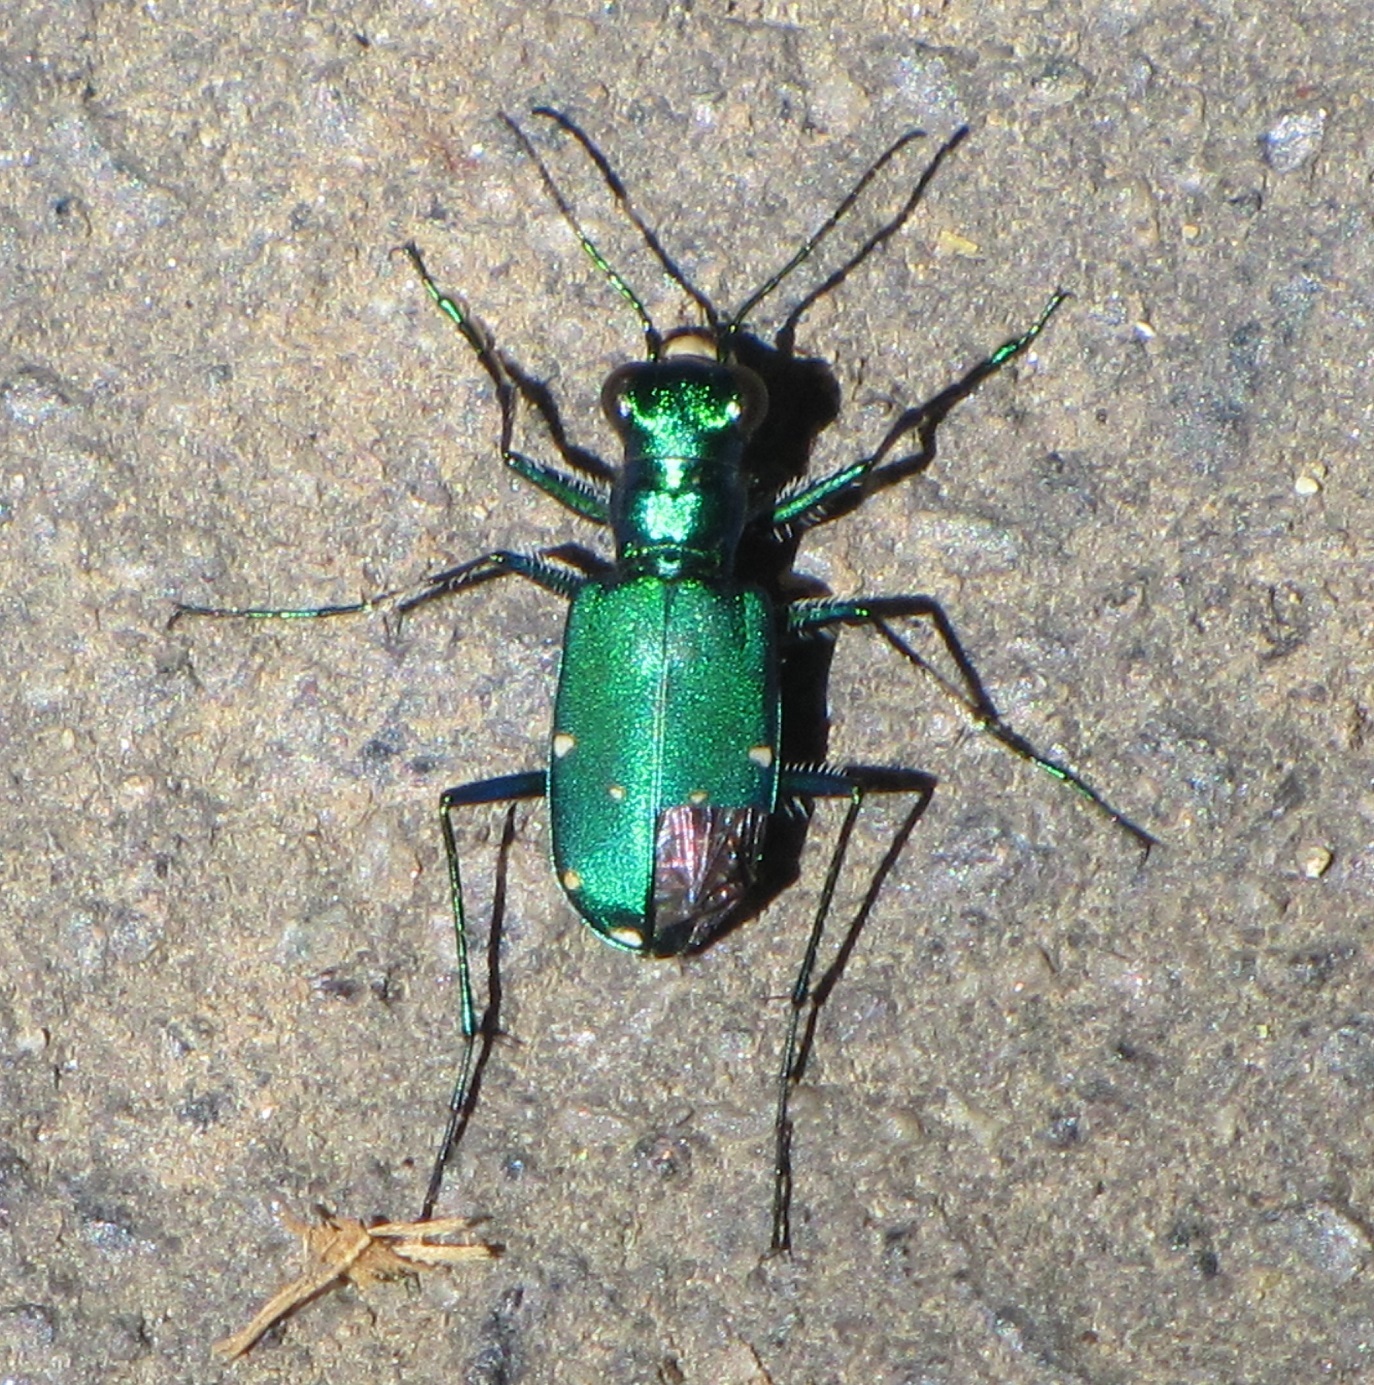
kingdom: Animalia
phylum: Arthropoda
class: Insecta
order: Coleoptera
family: Carabidae
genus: Cicindela
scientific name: Cicindela sexguttata
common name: Six-spotted tiger beetle
